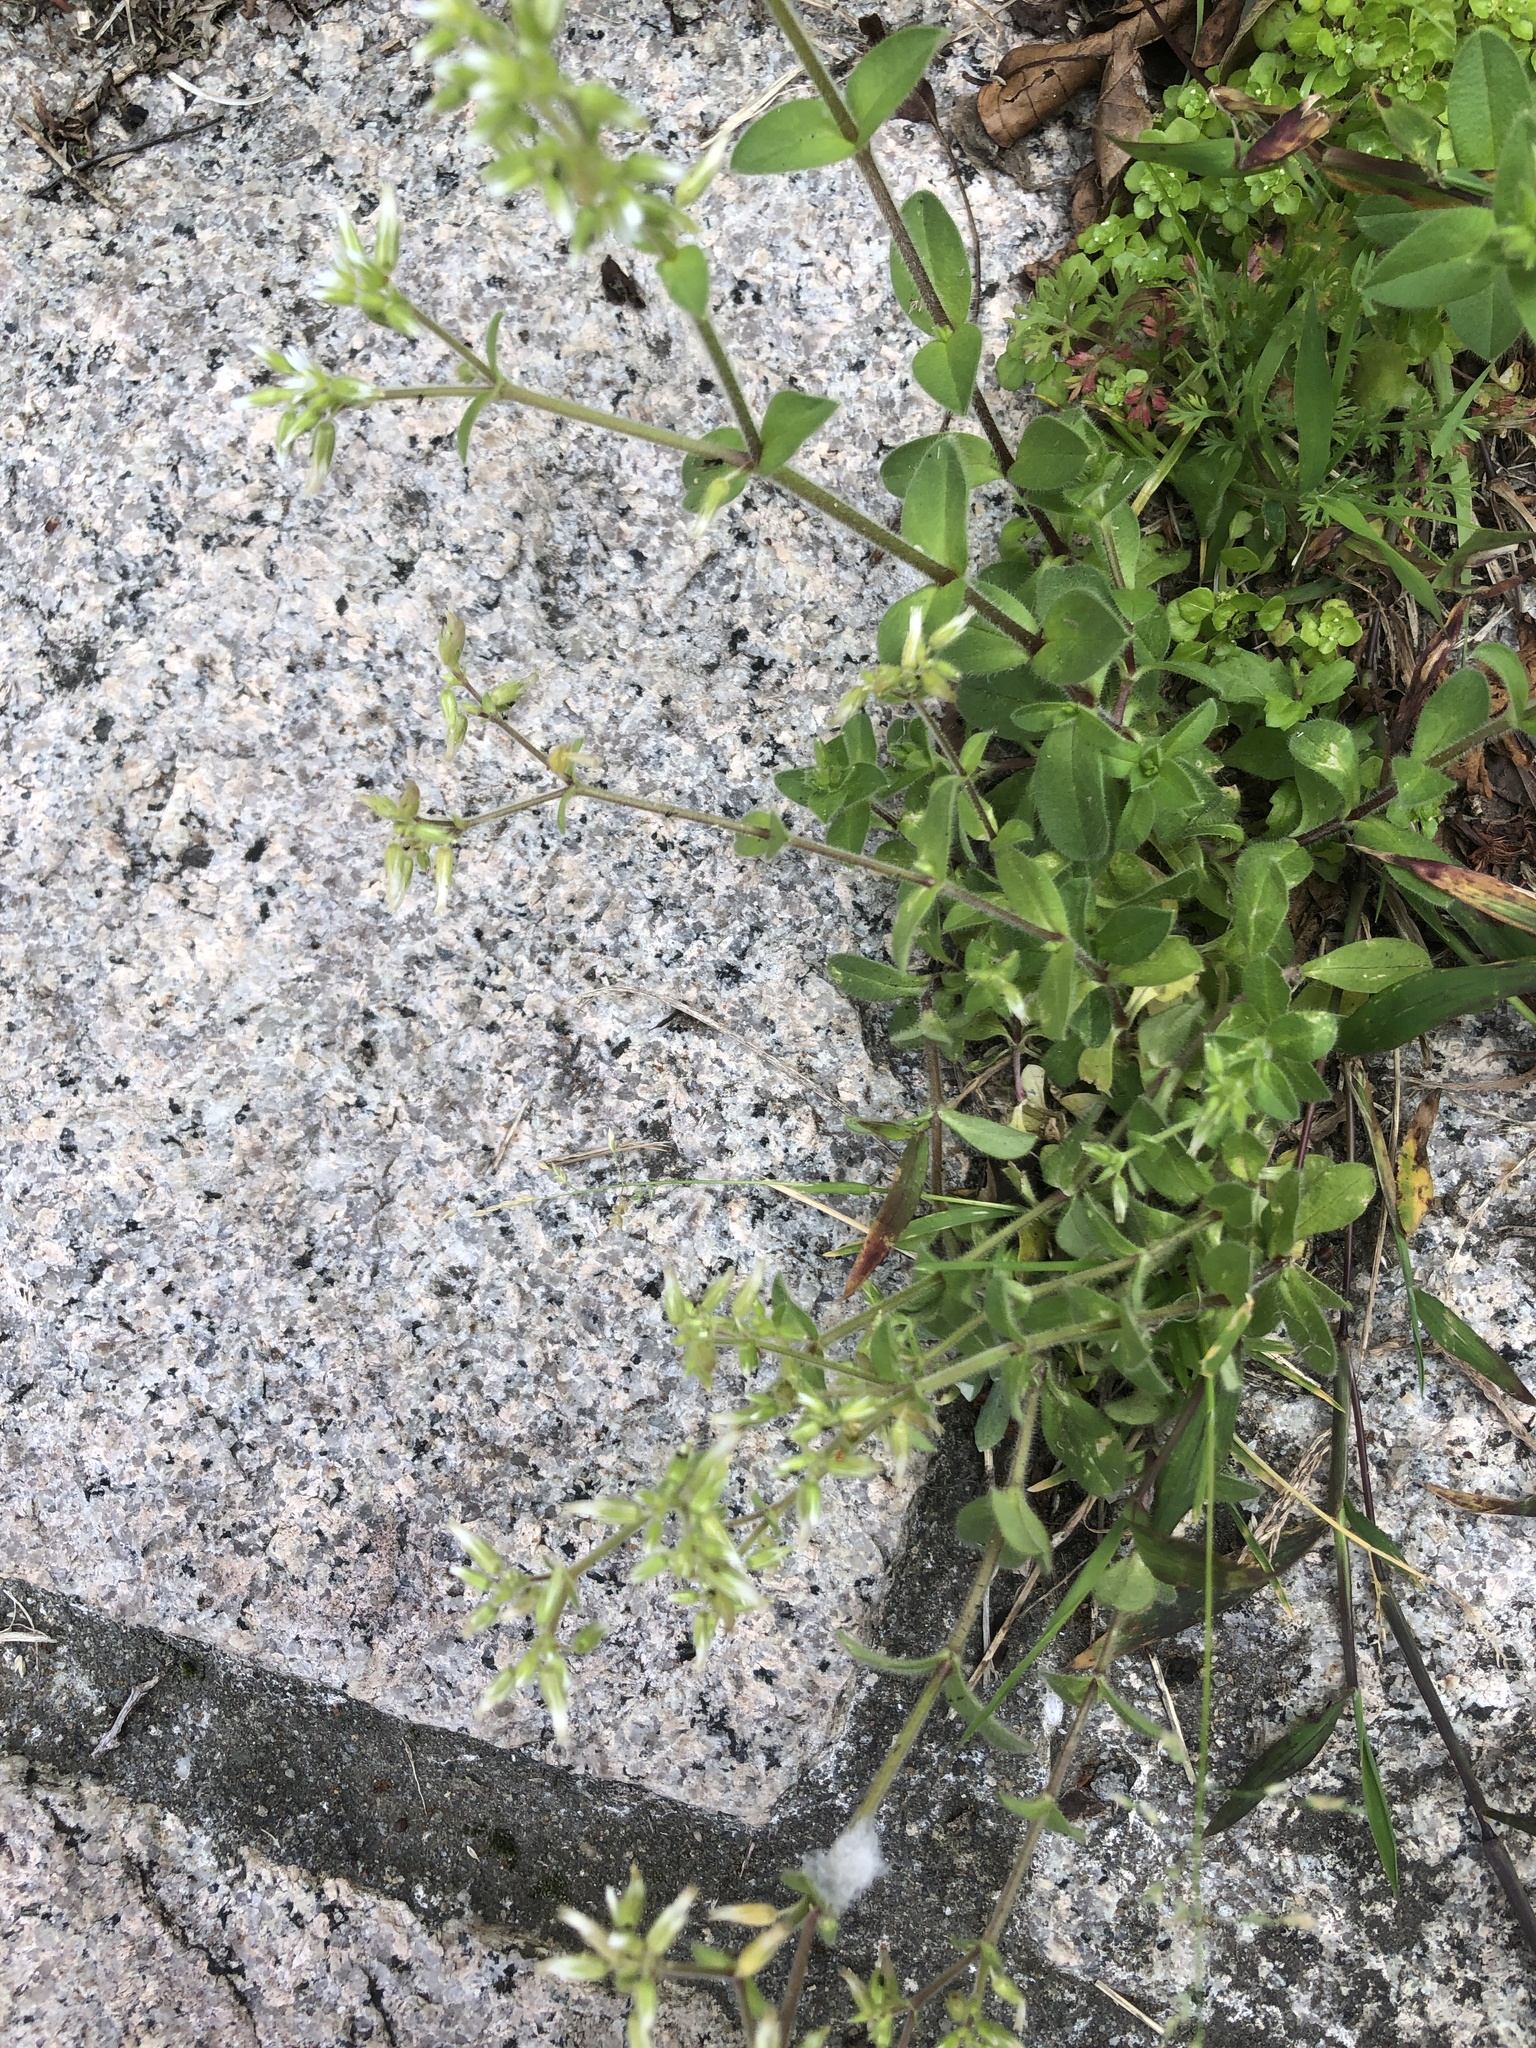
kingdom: Plantae
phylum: Tracheophyta
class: Magnoliopsida
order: Caryophyllales
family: Caryophyllaceae
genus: Cerastium
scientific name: Cerastium glomeratum
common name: Sticky chickweed
